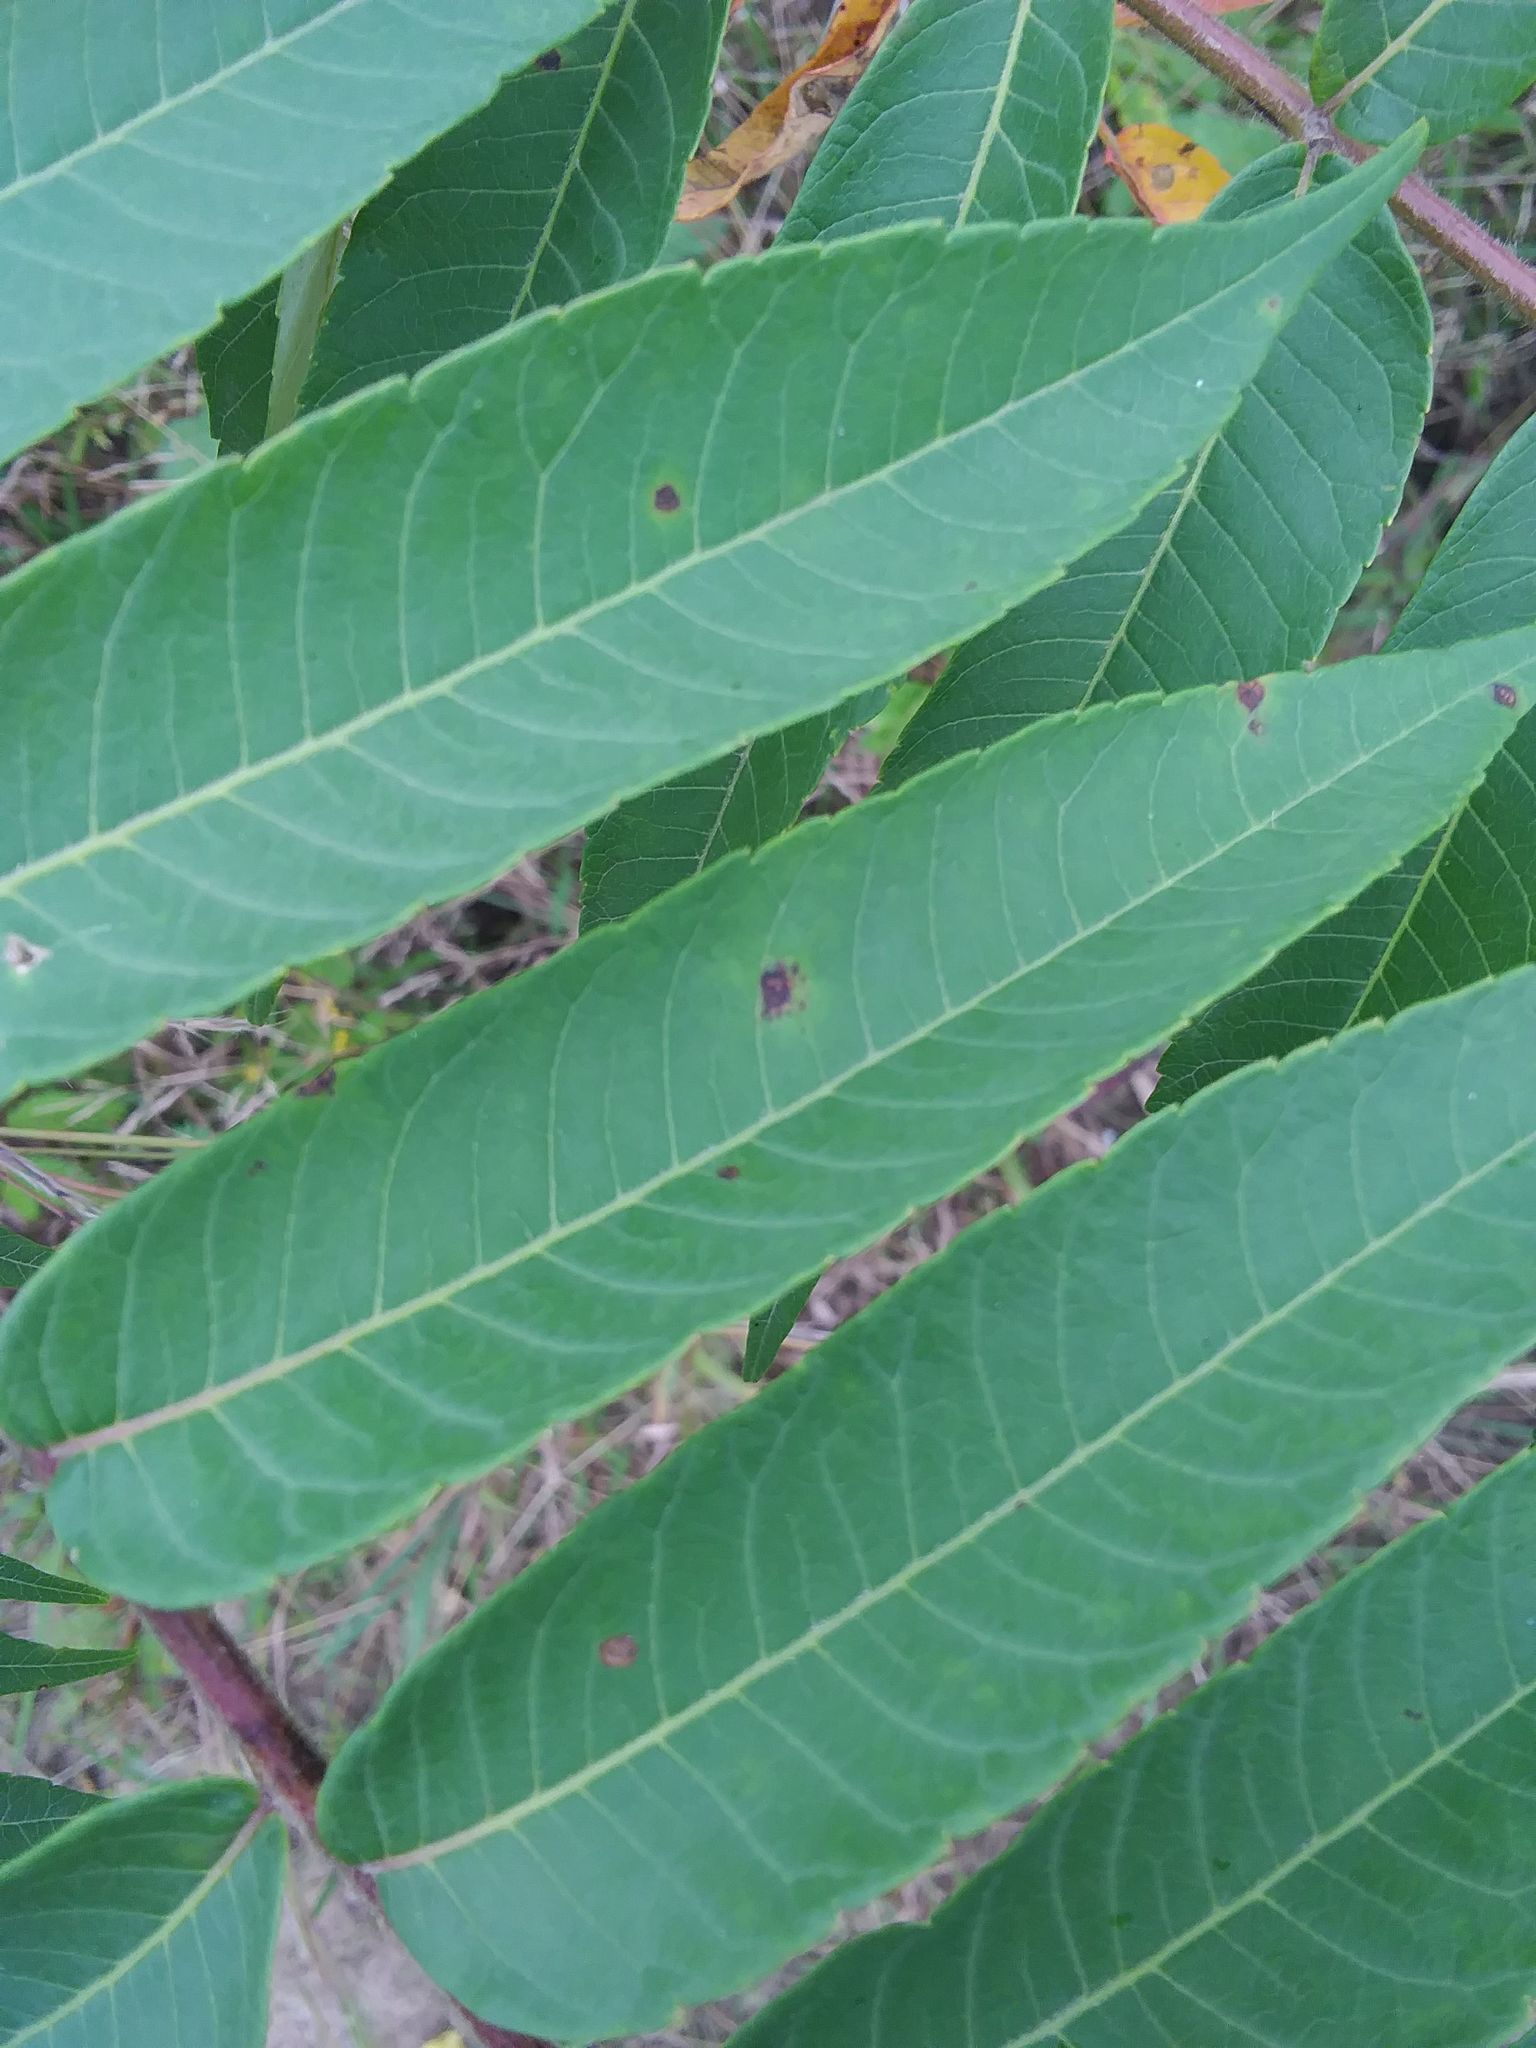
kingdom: Plantae
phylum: Tracheophyta
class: Magnoliopsida
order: Sapindales
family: Anacardiaceae
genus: Rhus
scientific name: Rhus typhina
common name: Staghorn sumac
